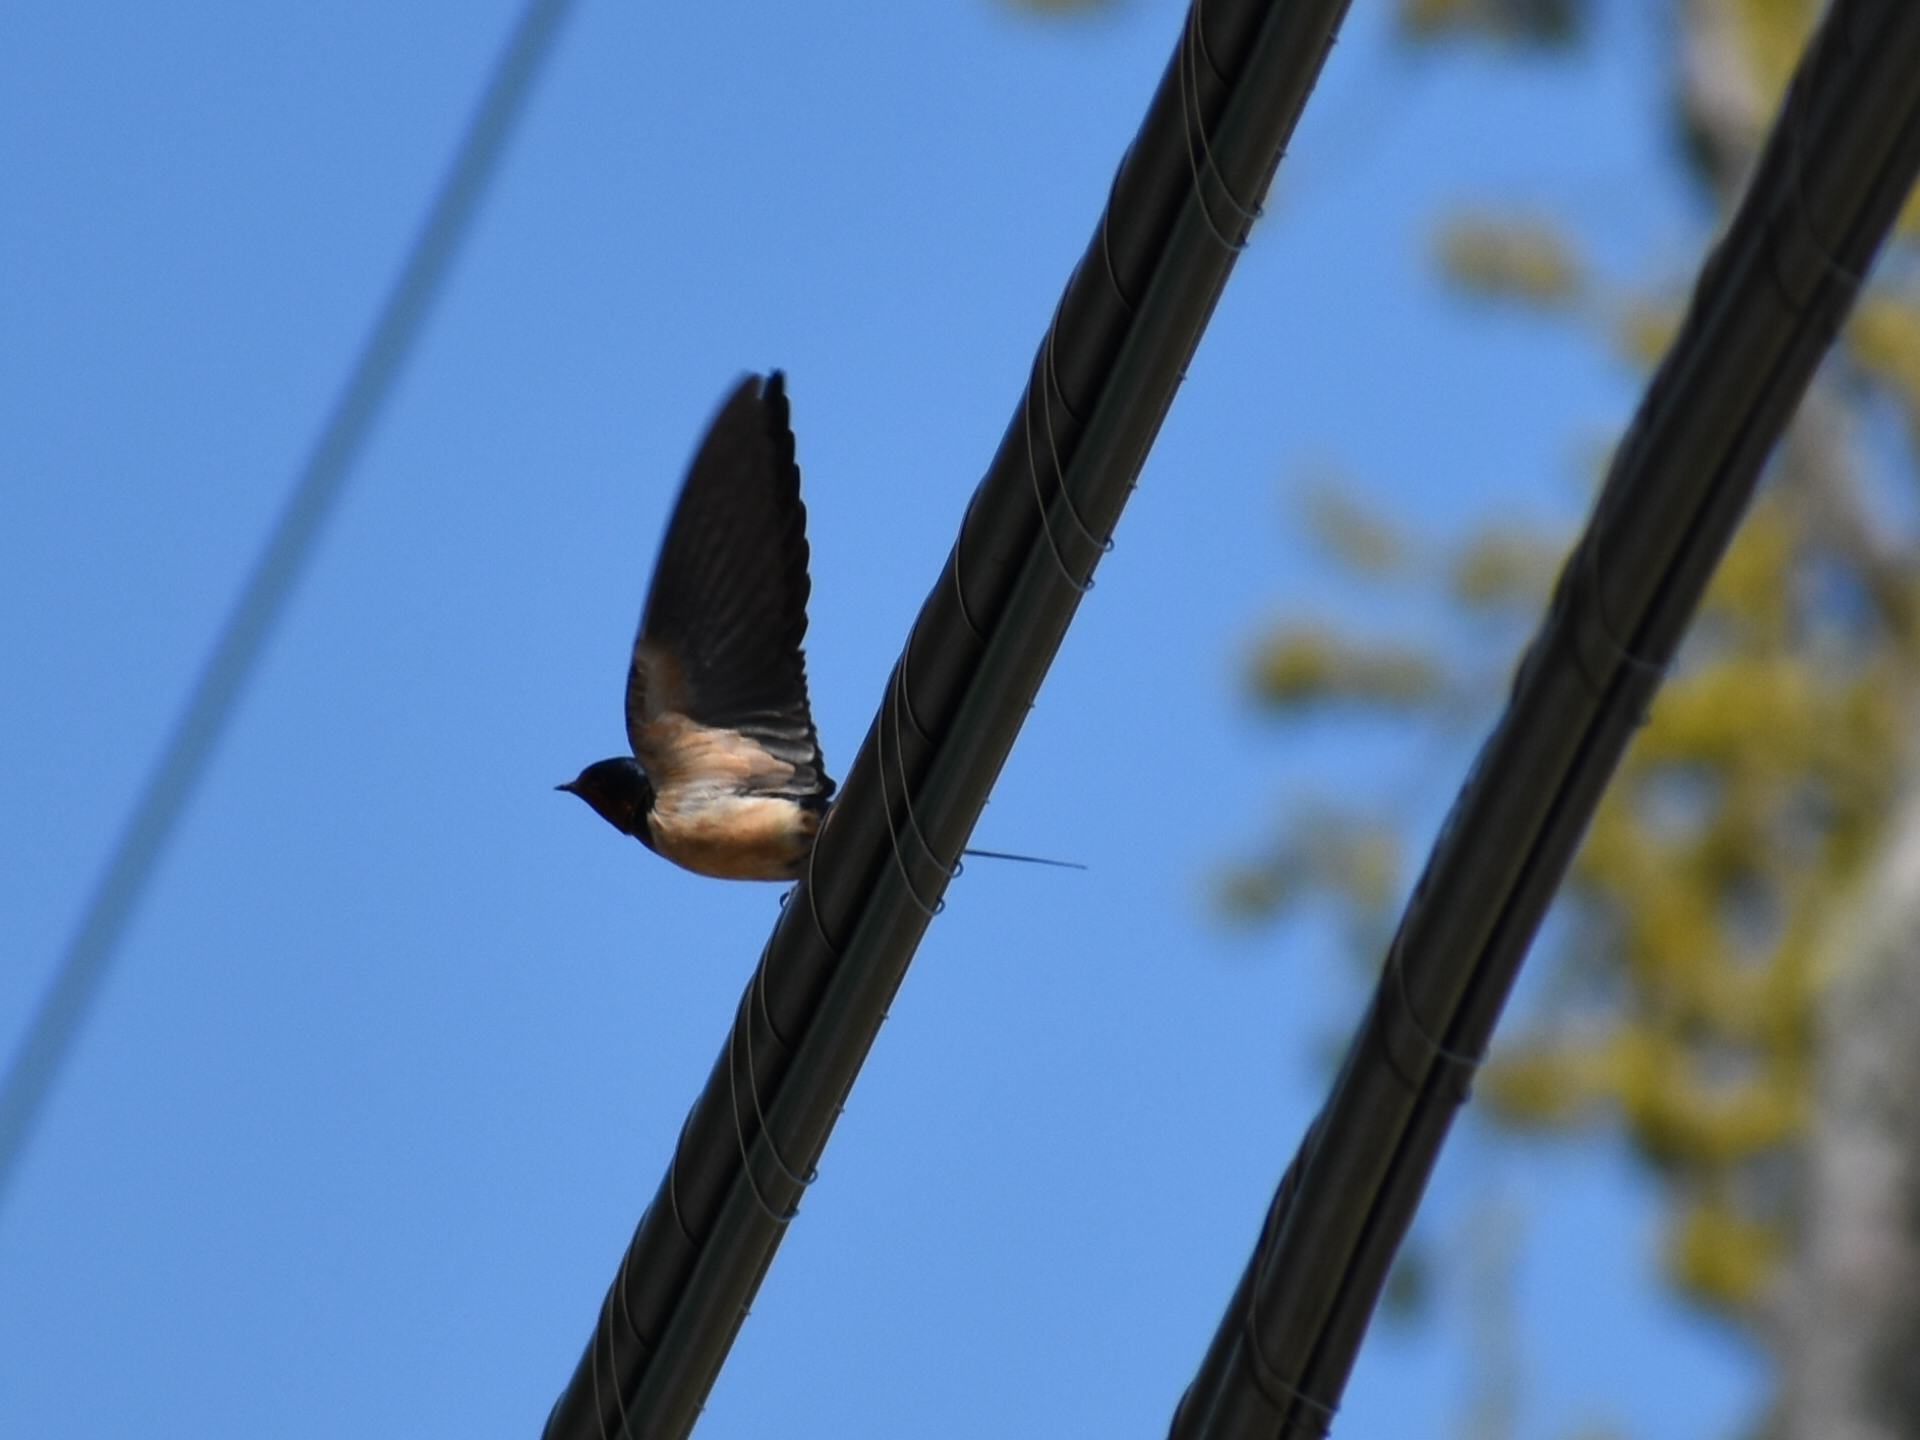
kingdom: Animalia
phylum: Chordata
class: Aves
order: Passeriformes
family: Hirundinidae
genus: Hirundo
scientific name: Hirundo rustica
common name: Barn swallow
